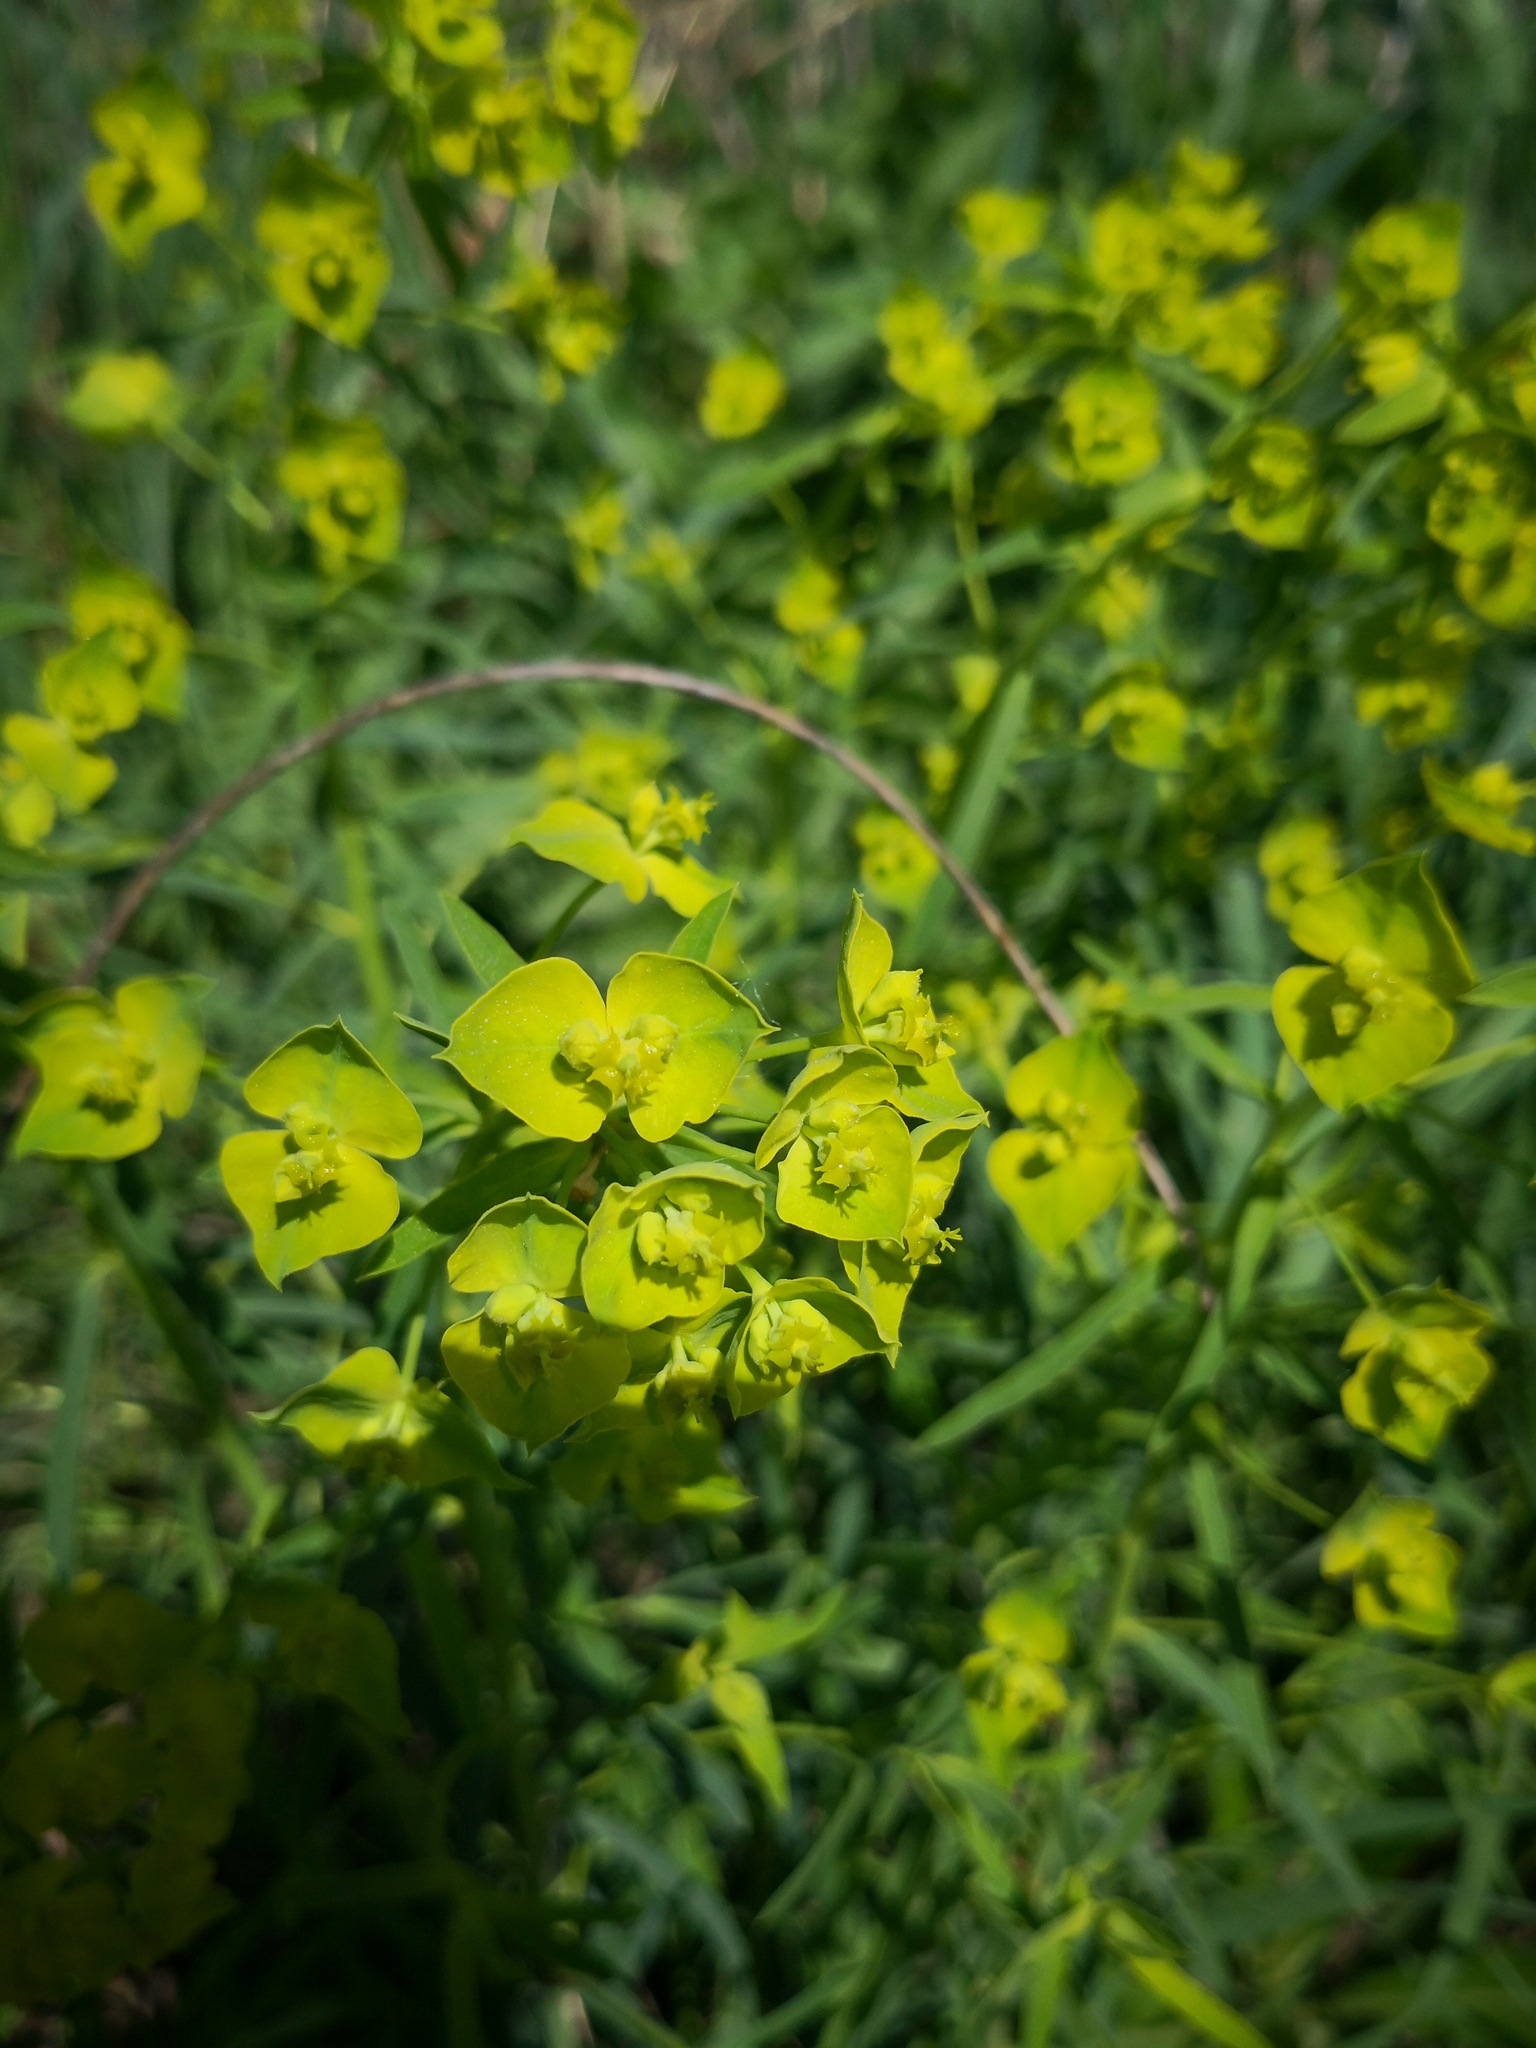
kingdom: Plantae
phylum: Tracheophyta
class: Magnoliopsida
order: Malpighiales
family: Euphorbiaceae
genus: Euphorbia
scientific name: Euphorbia virgata
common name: Leafy spurge
